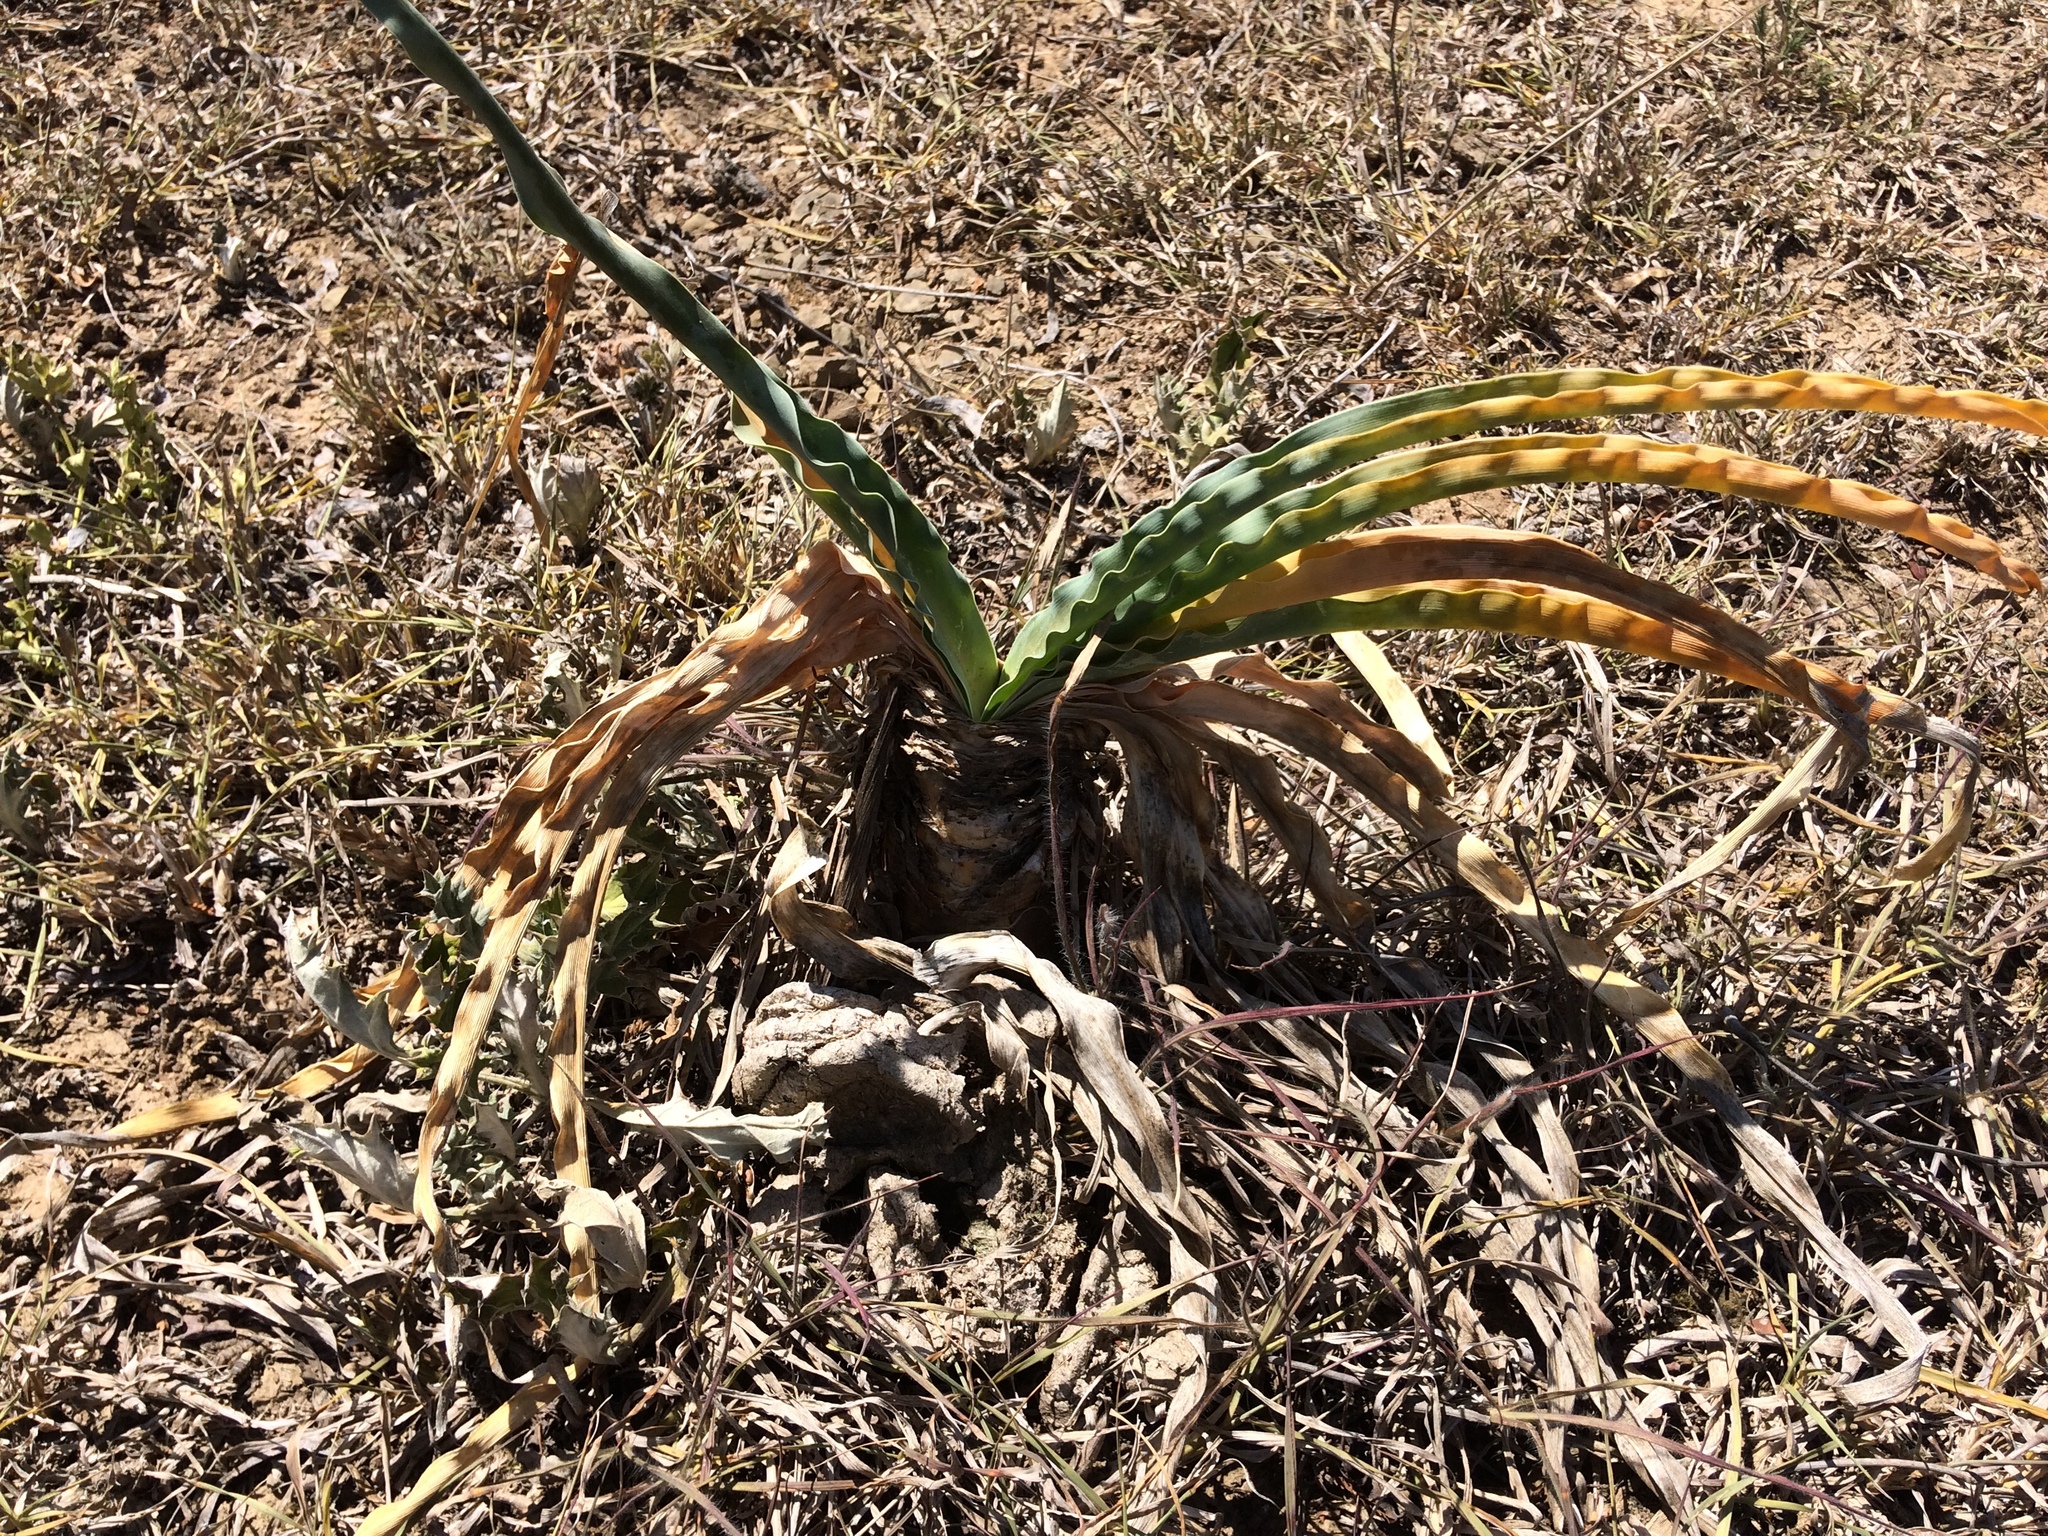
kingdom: Plantae
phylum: Tracheophyta
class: Liliopsida
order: Asparagales
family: Amaryllidaceae
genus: Boophone
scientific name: Boophone disticha
